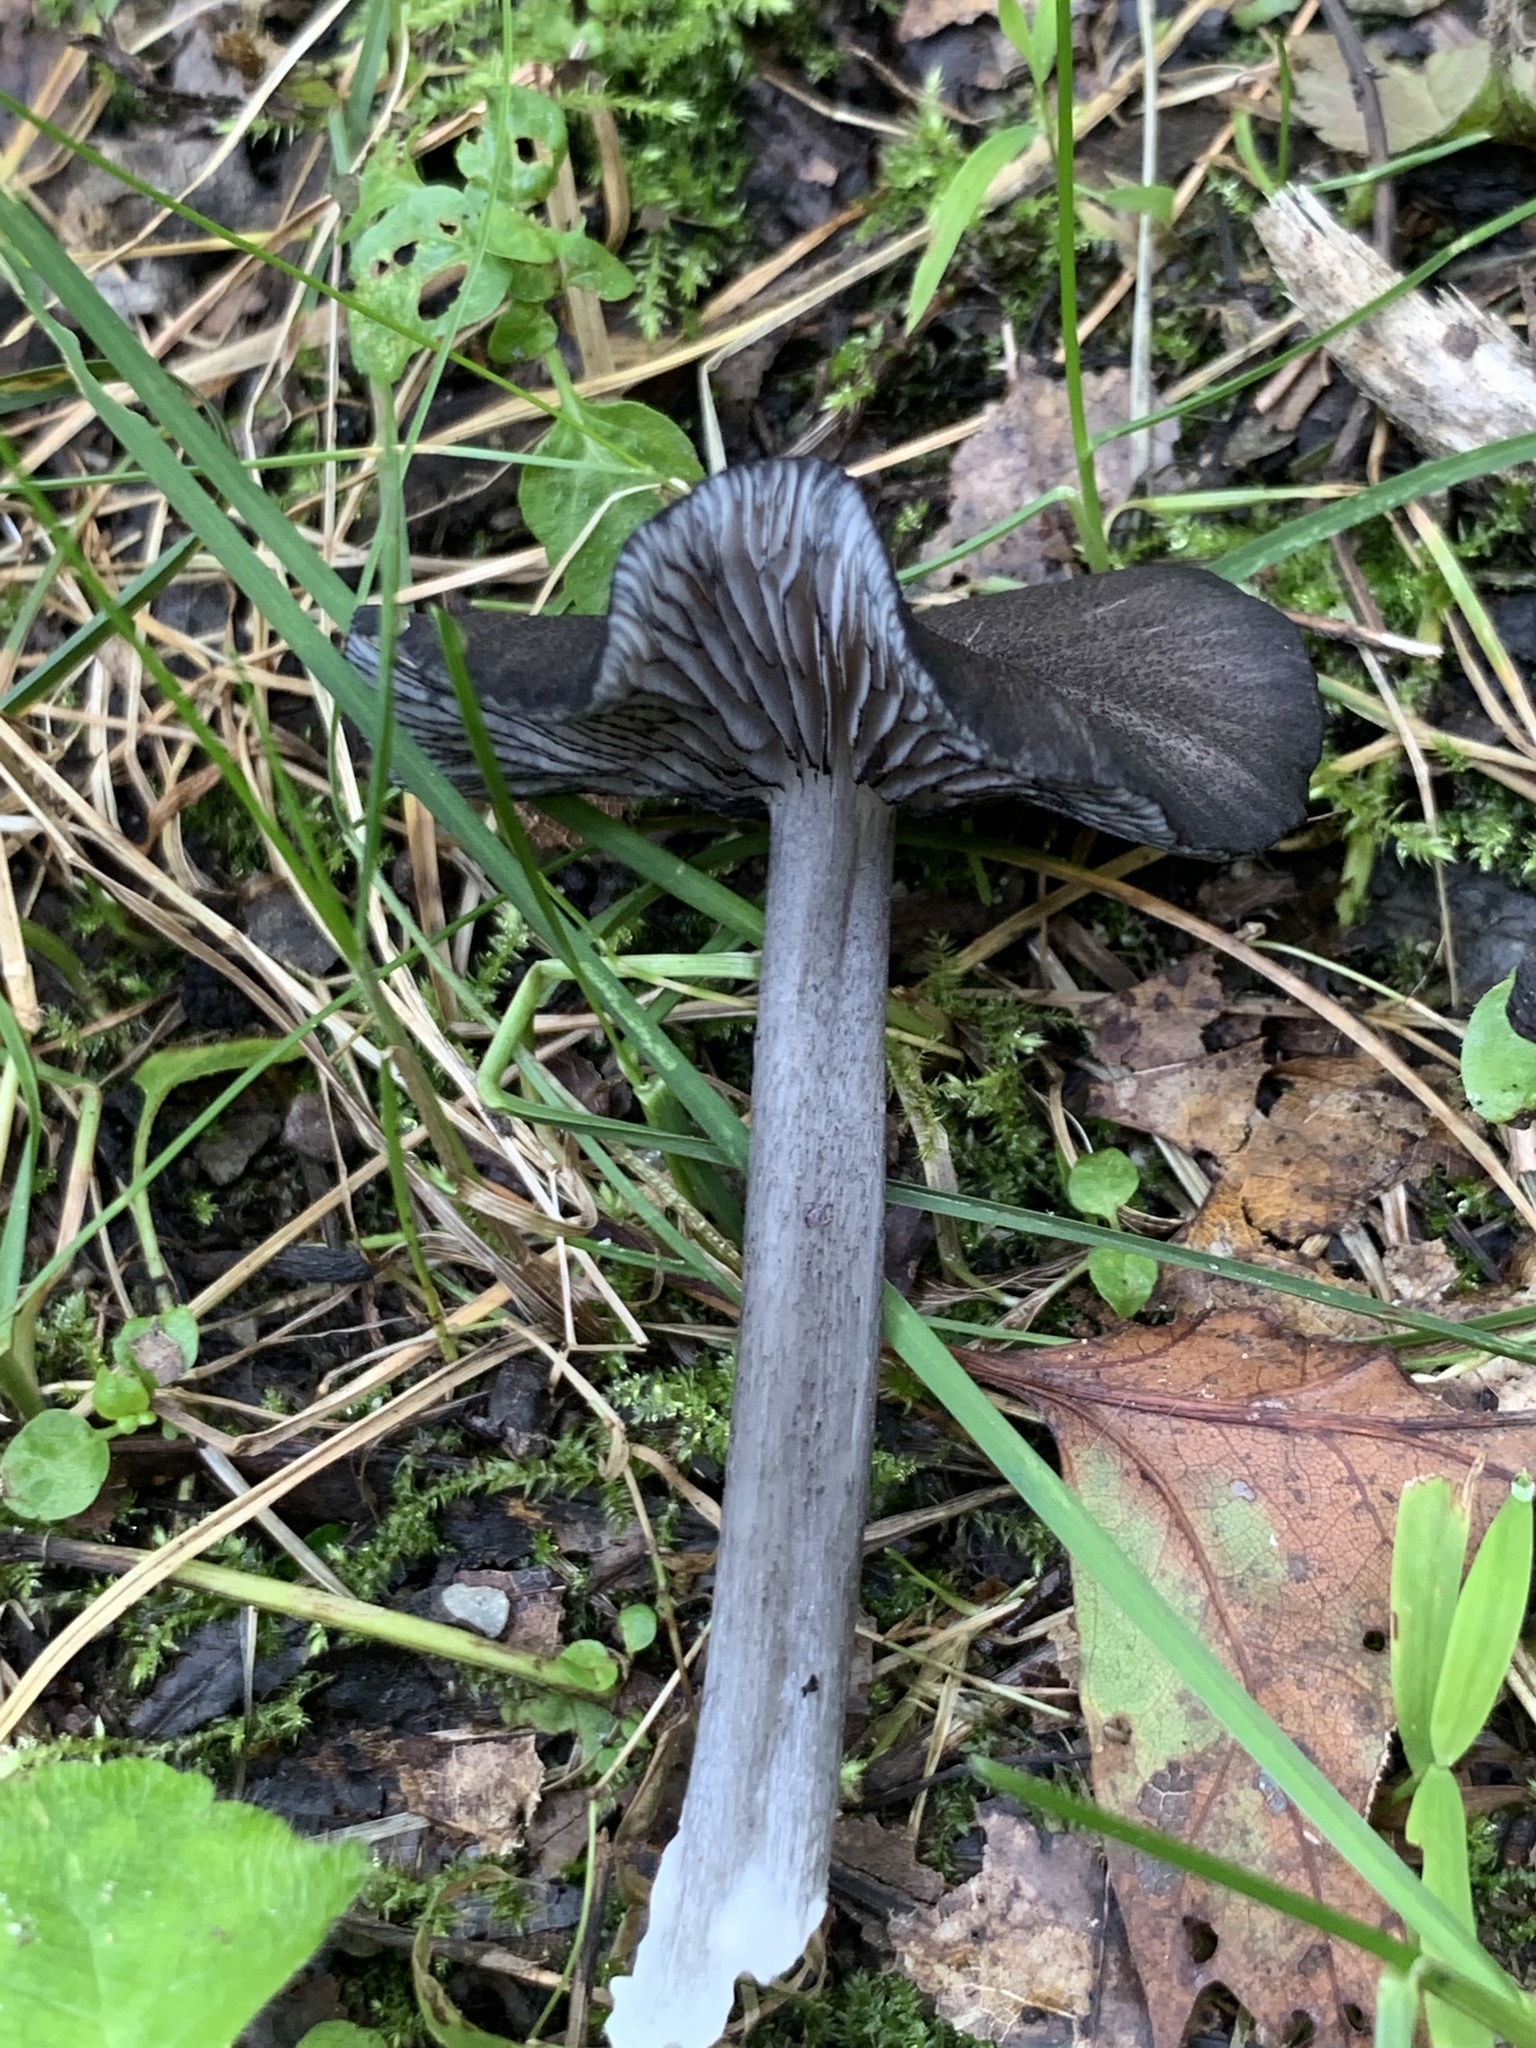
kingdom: Fungi
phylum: Basidiomycota
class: Agaricomycetes
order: Agaricales
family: Entolomataceae
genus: Entoloma
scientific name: Entoloma serrulatum
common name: Blue edge pinkgill
